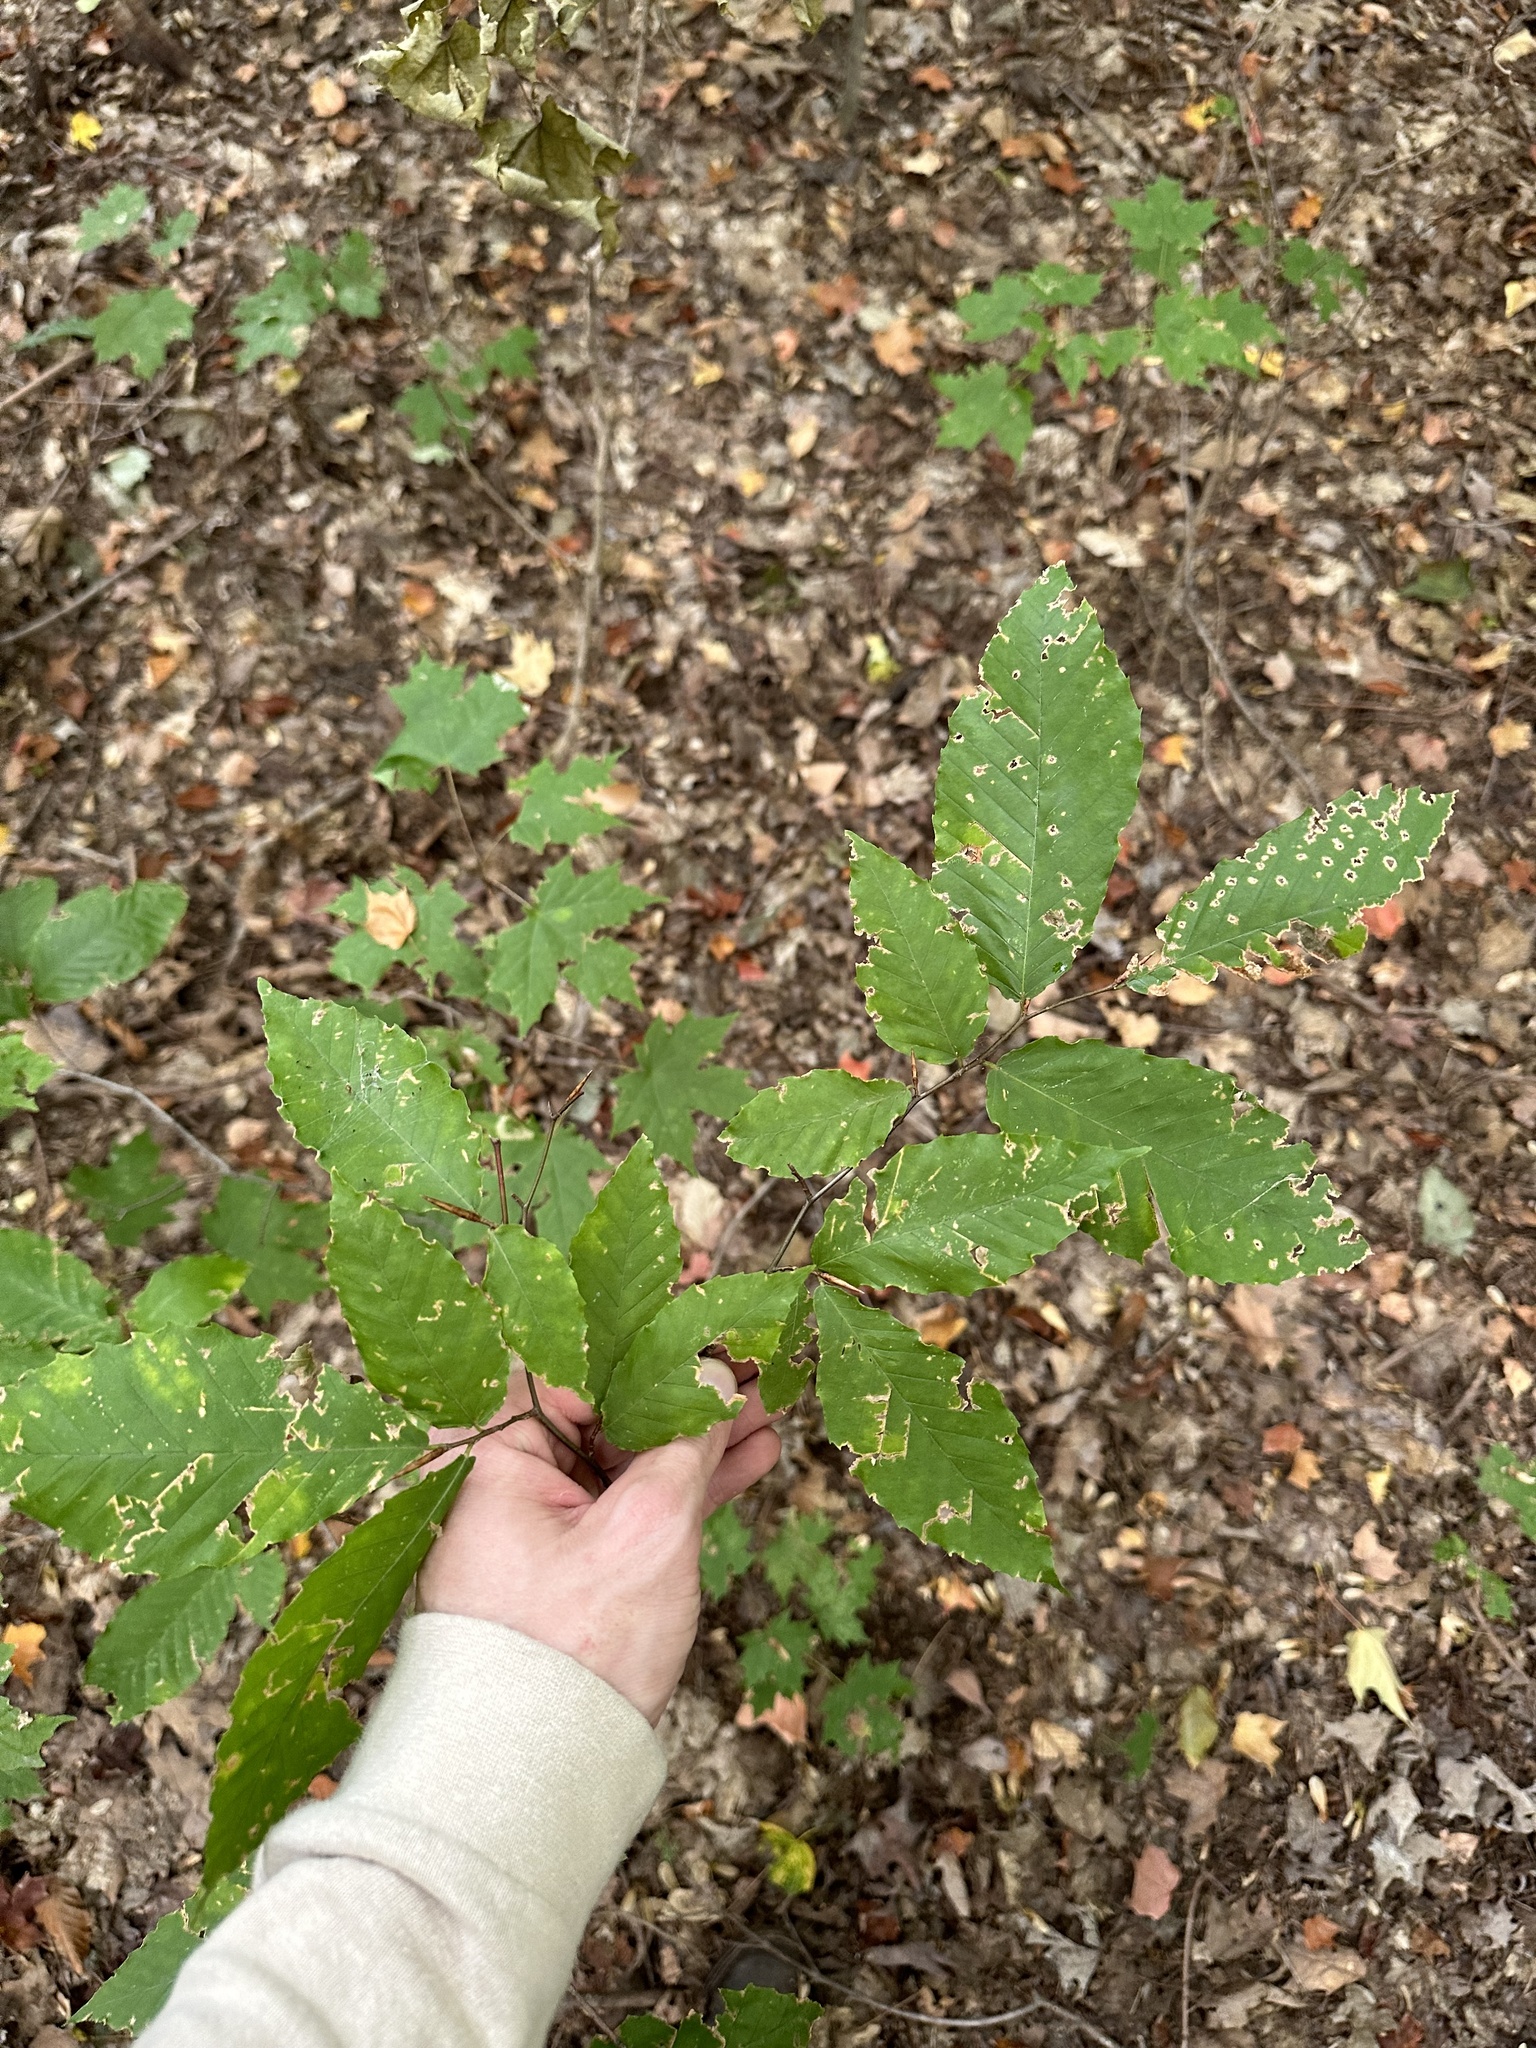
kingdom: Plantae
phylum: Tracheophyta
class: Magnoliopsida
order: Fagales
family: Fagaceae
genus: Fagus
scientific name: Fagus grandifolia
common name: American beech
